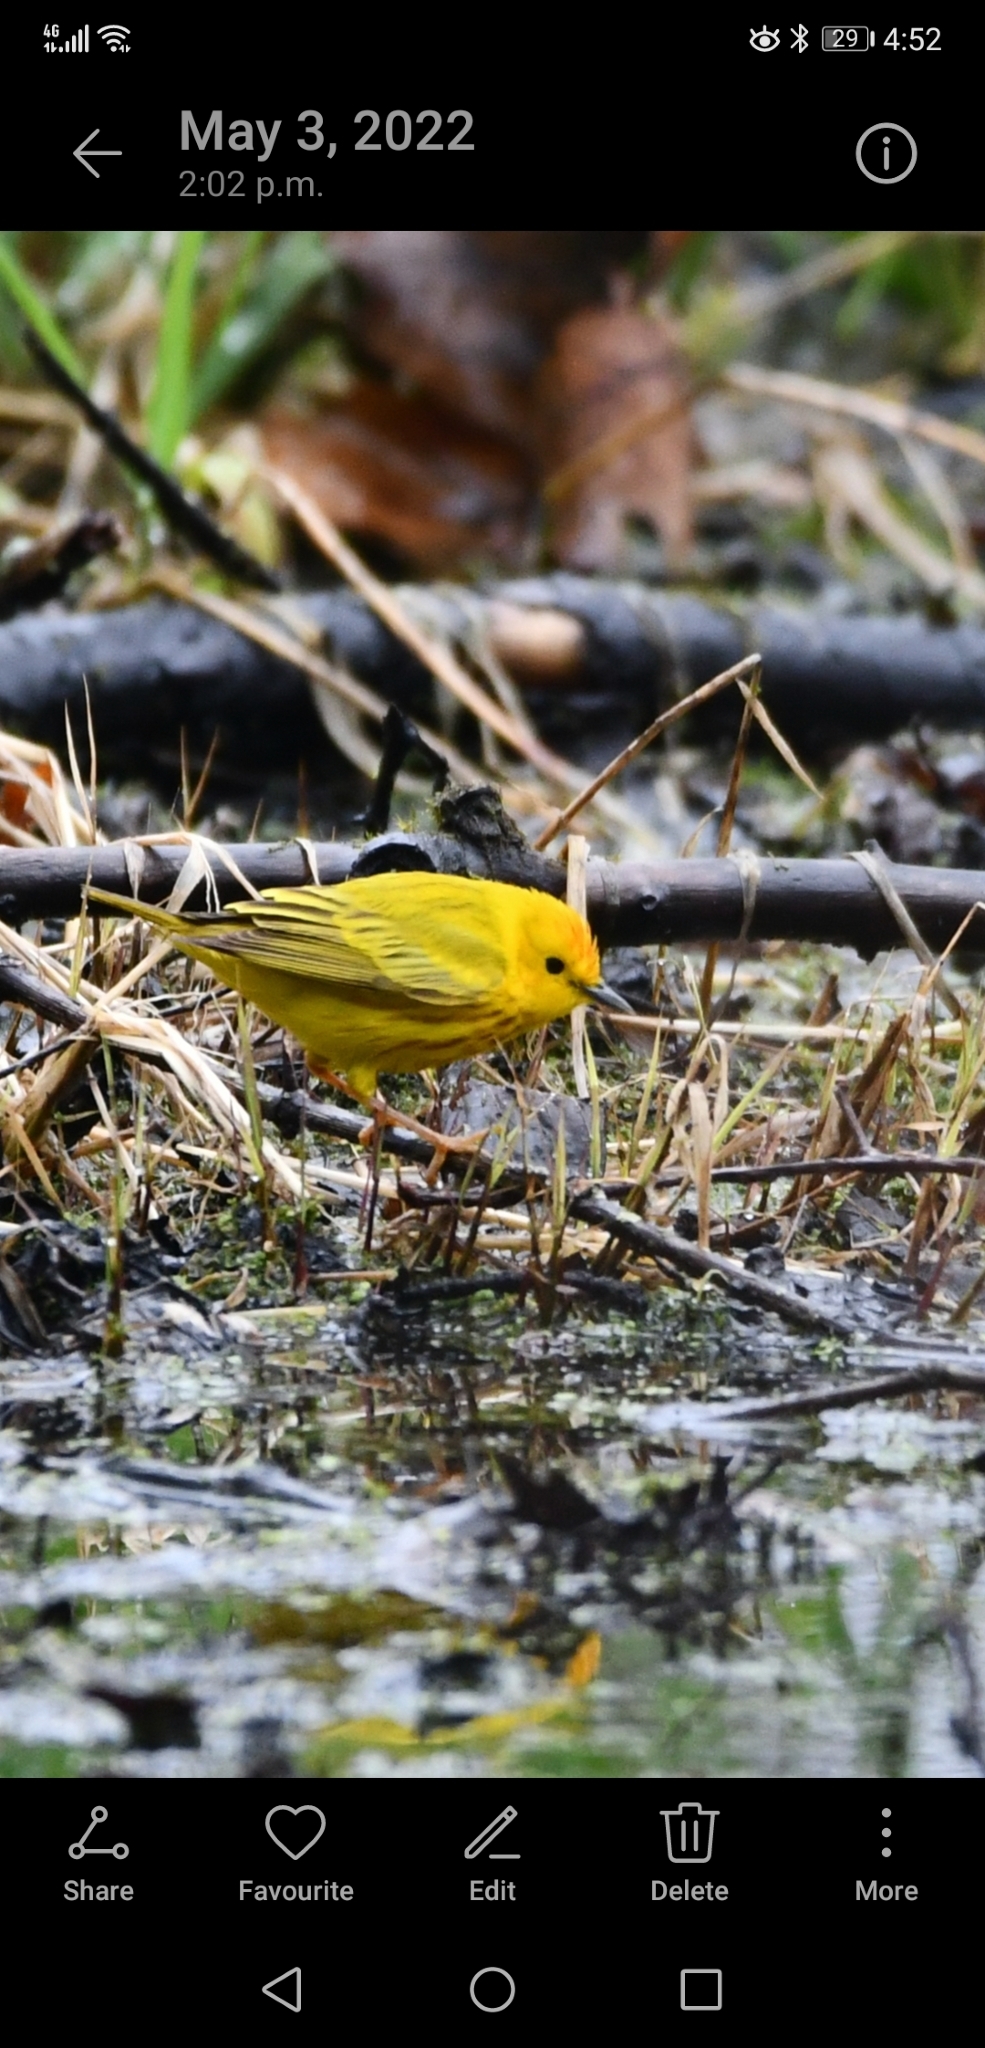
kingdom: Animalia
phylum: Chordata
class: Aves
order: Passeriformes
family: Parulidae
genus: Setophaga
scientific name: Setophaga petechia
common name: Yellow warbler
